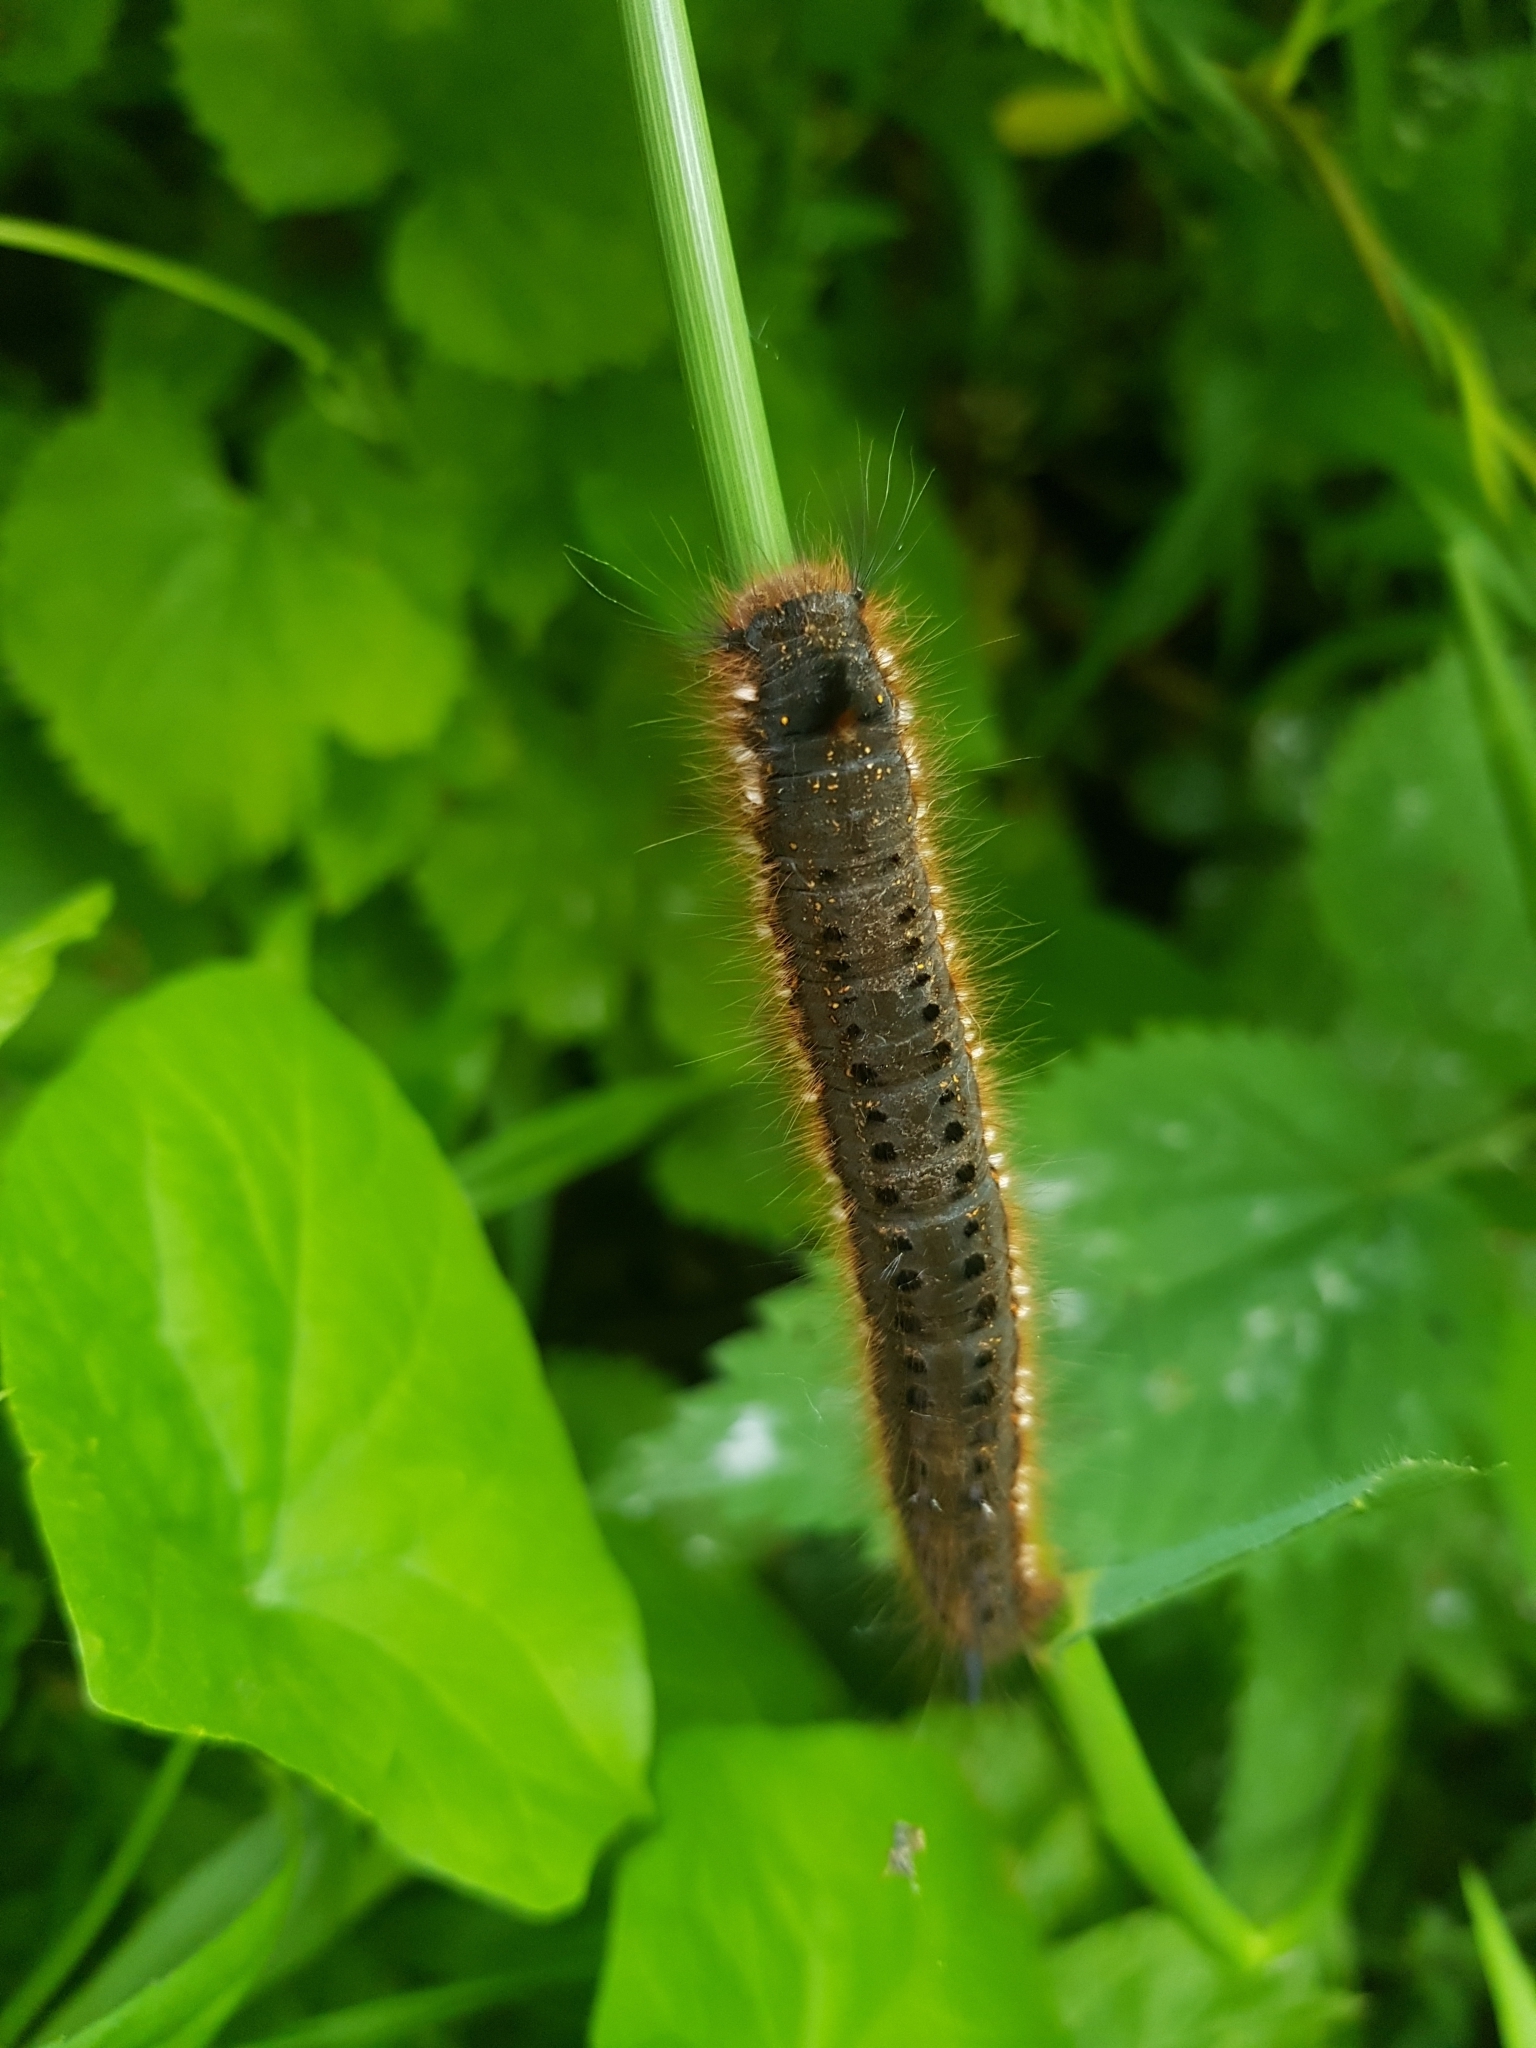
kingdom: Animalia
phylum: Arthropoda
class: Insecta
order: Lepidoptera
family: Lasiocampidae
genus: Euthrix
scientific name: Euthrix potatoria
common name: Drinker
